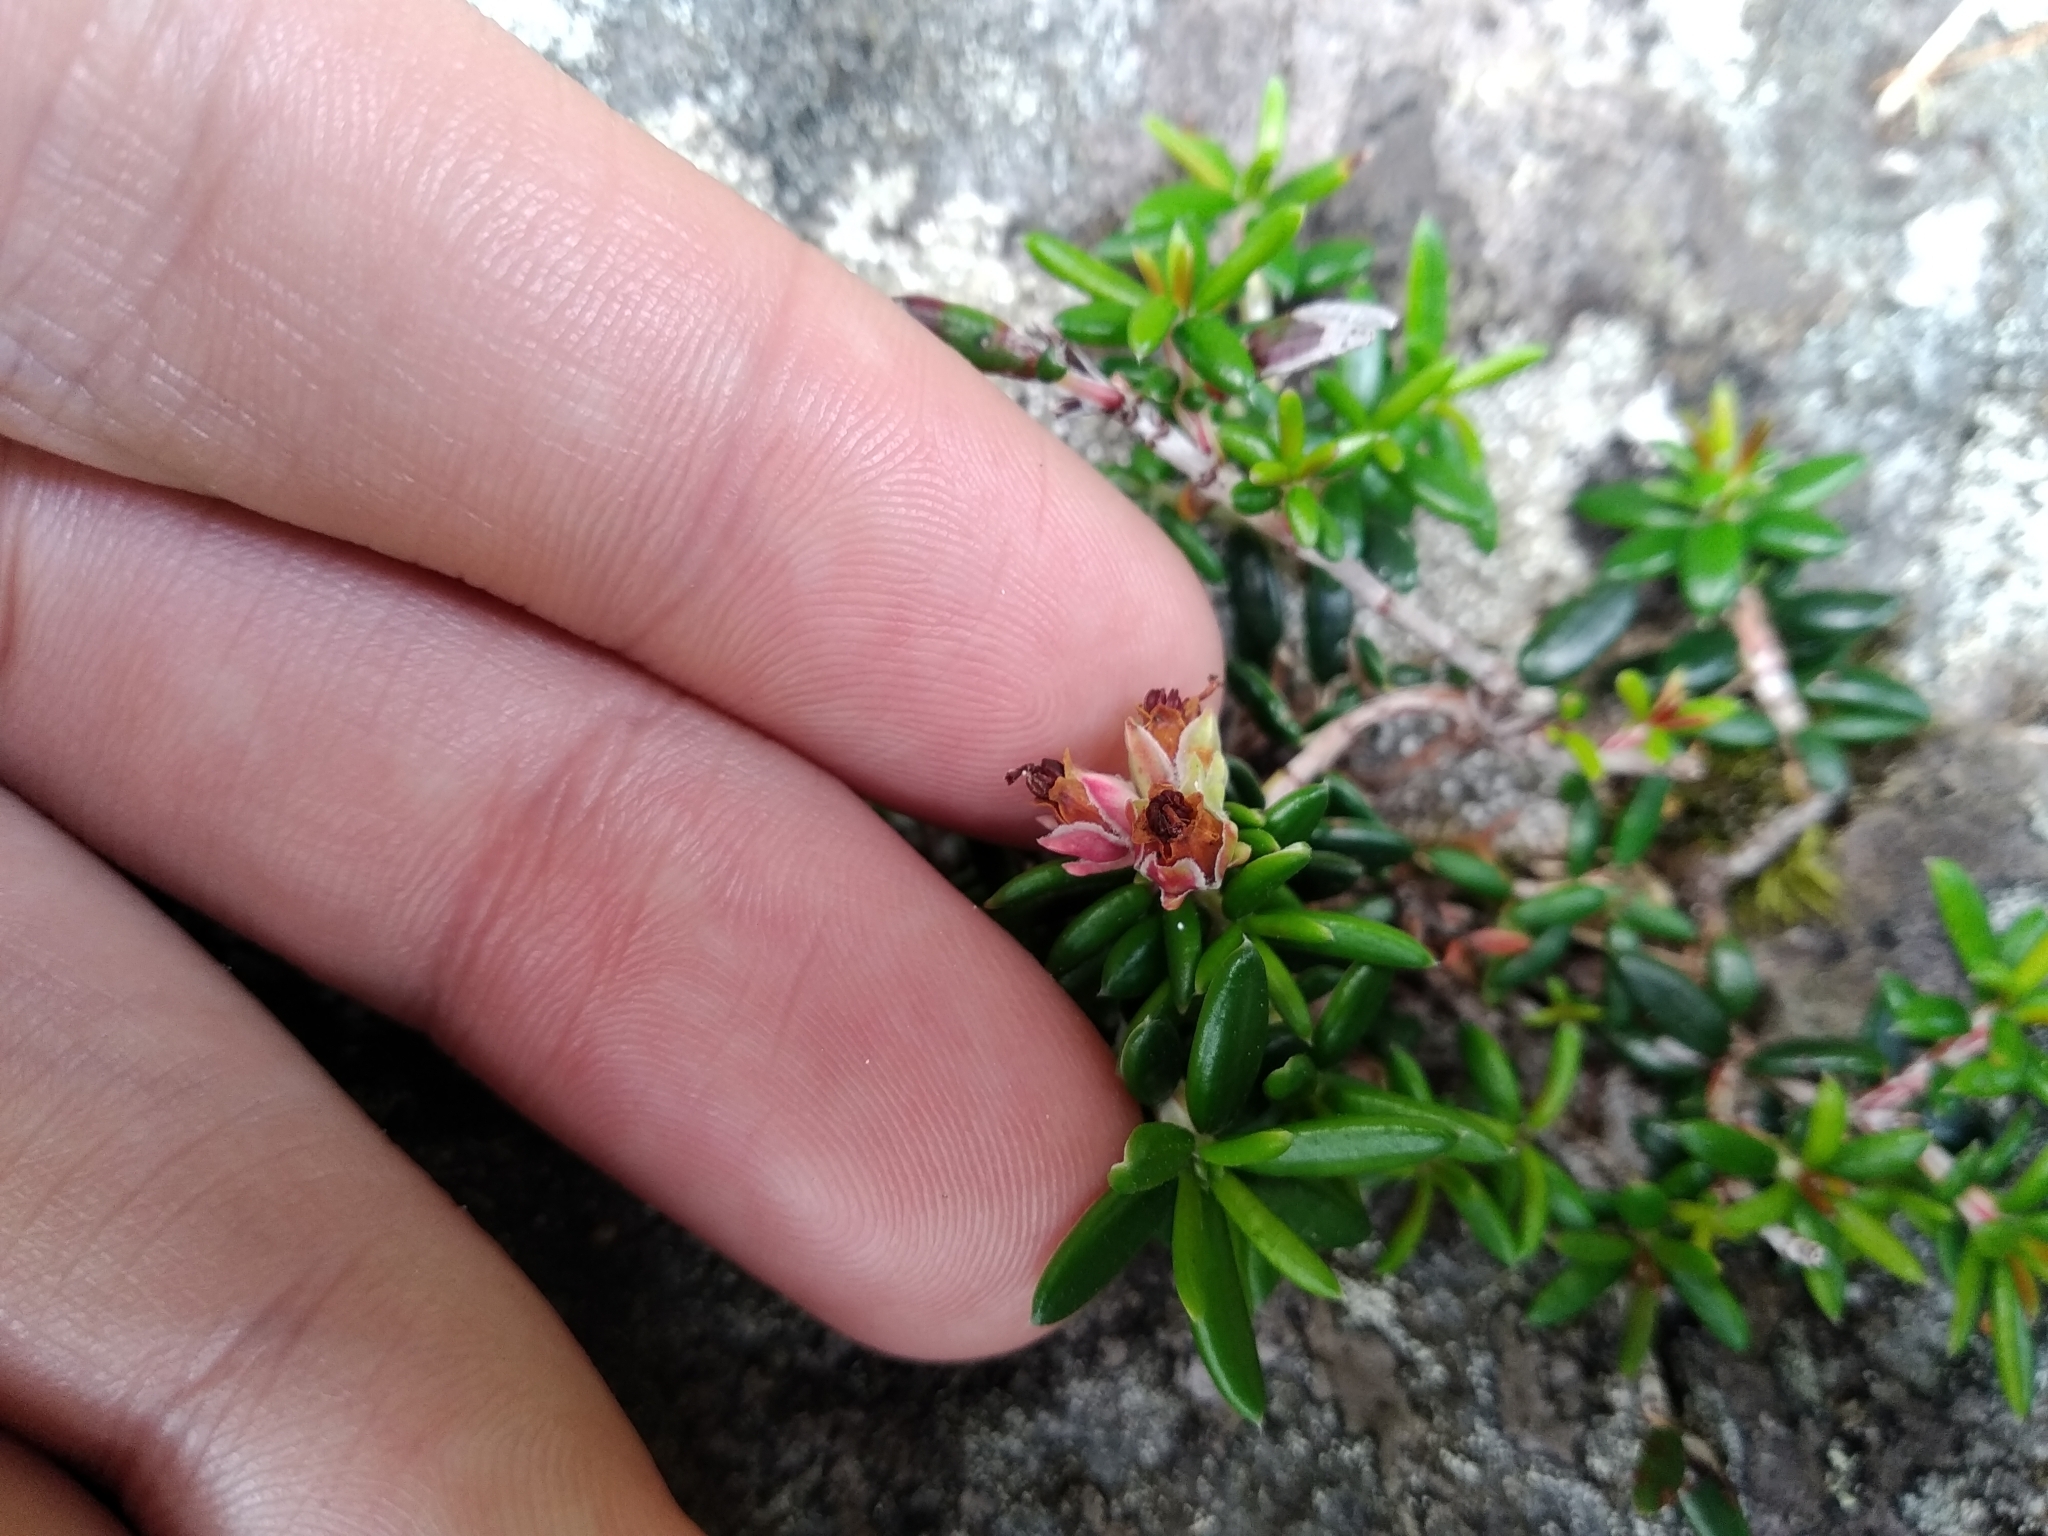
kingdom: Plantae
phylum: Tracheophyta
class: Magnoliopsida
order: Ericales
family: Ericaceae
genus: Erica
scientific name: Erica petiolaris
